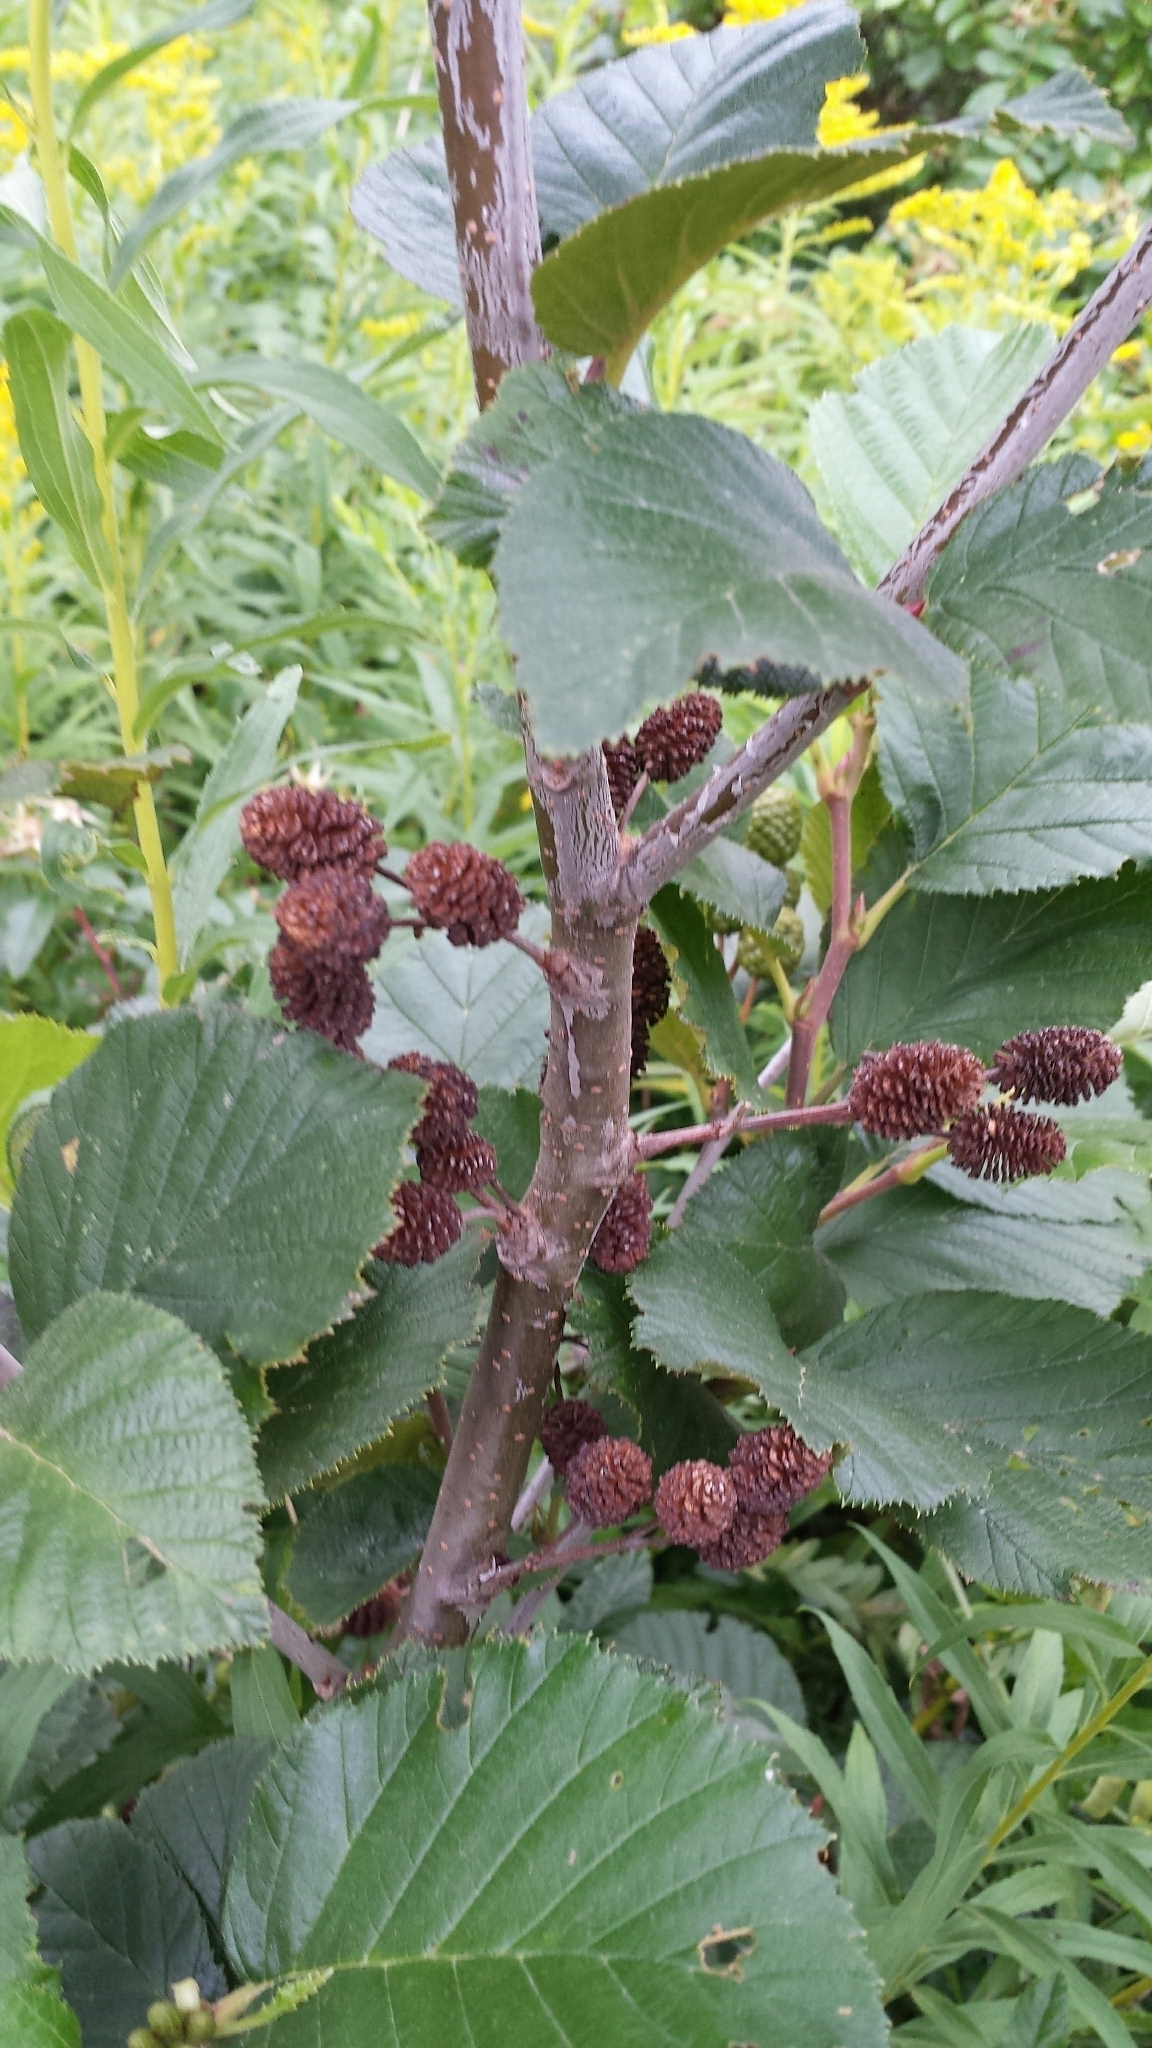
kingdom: Plantae
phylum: Tracheophyta
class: Magnoliopsida
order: Fagales
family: Betulaceae
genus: Alnus
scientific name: Alnus alnobetula
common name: Green alder
